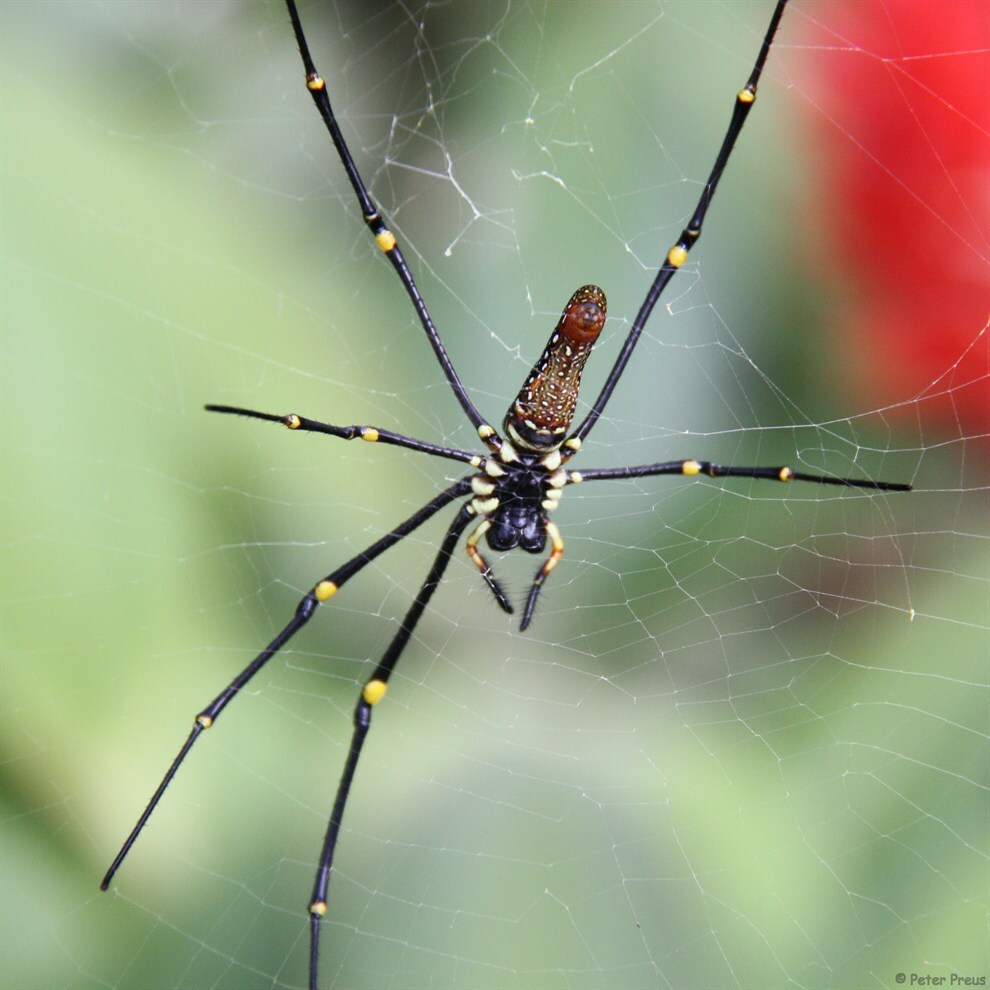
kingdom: Animalia
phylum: Arthropoda
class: Arachnida
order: Araneae
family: Araneidae
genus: Nephila
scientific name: Nephila pilipes
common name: Giant golden orb weaver
